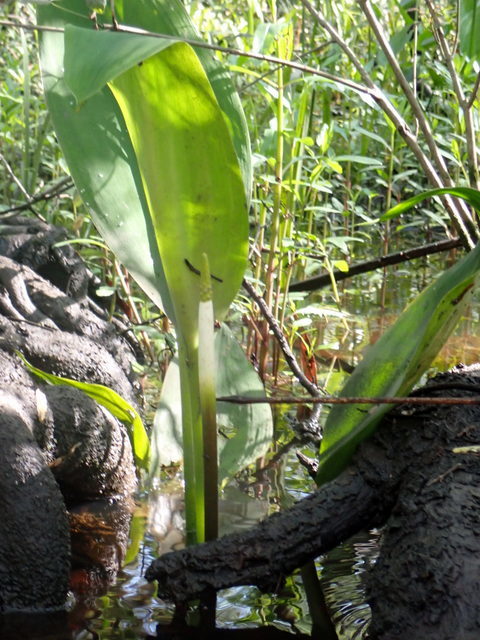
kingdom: Plantae
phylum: Tracheophyta
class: Liliopsida
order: Alismatales
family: Araceae
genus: Orontium
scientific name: Orontium aquaticum
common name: Golden-club
